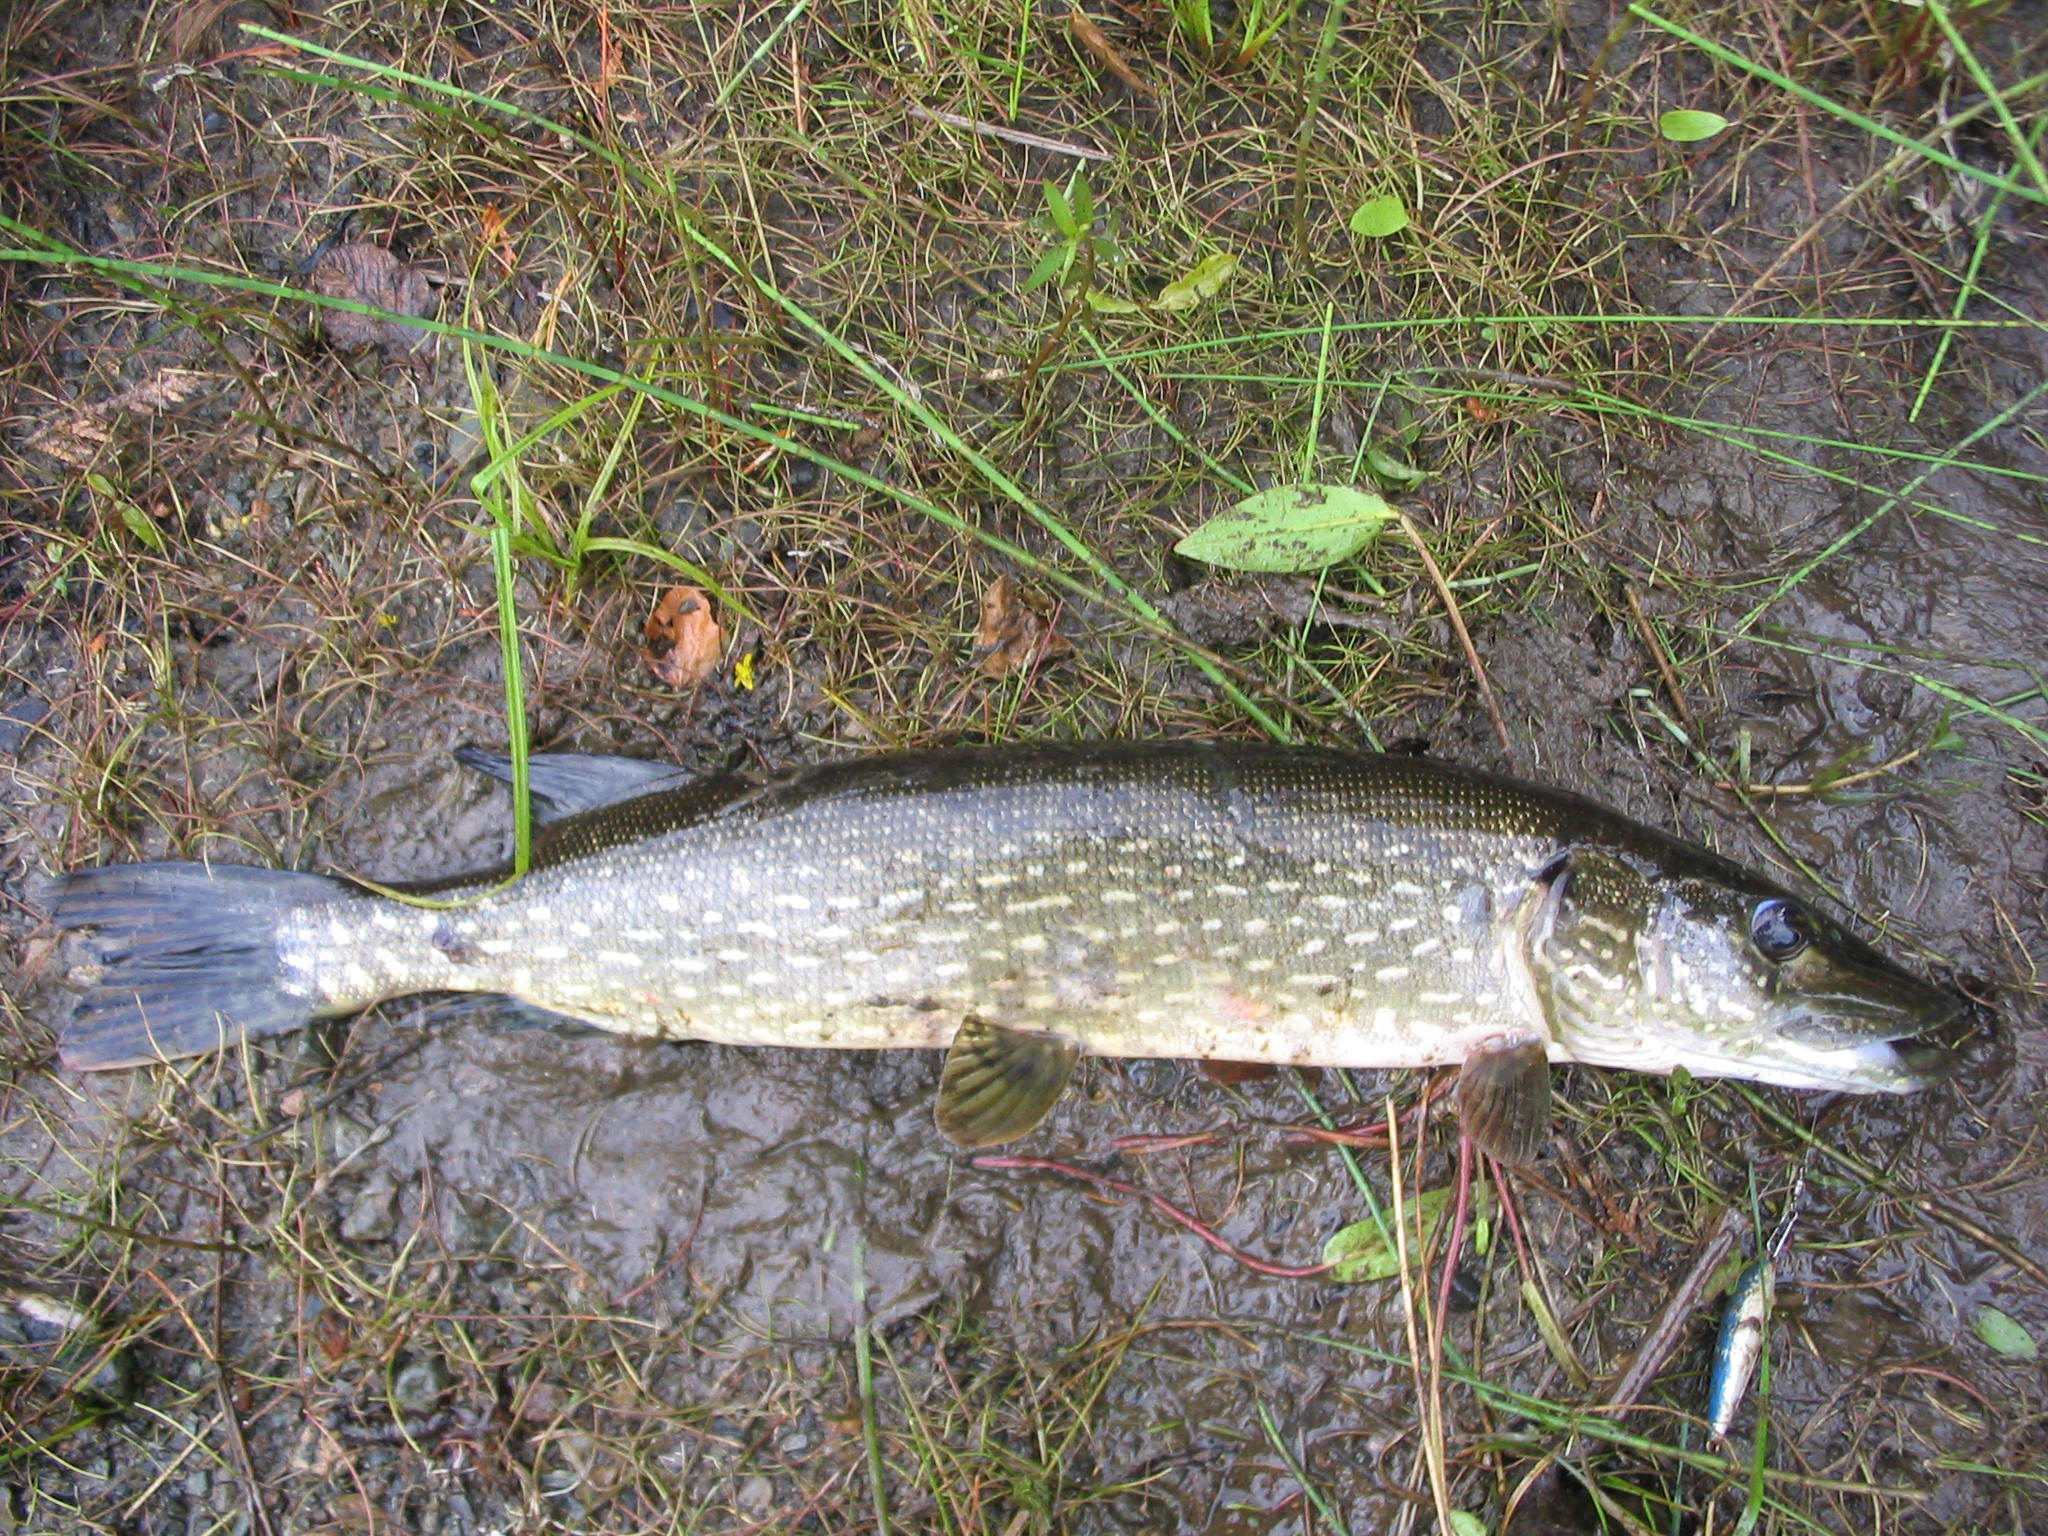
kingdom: Animalia
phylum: Chordata
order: Esociformes
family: Esocidae
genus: Esox
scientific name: Esox lucius
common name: Northern pike
